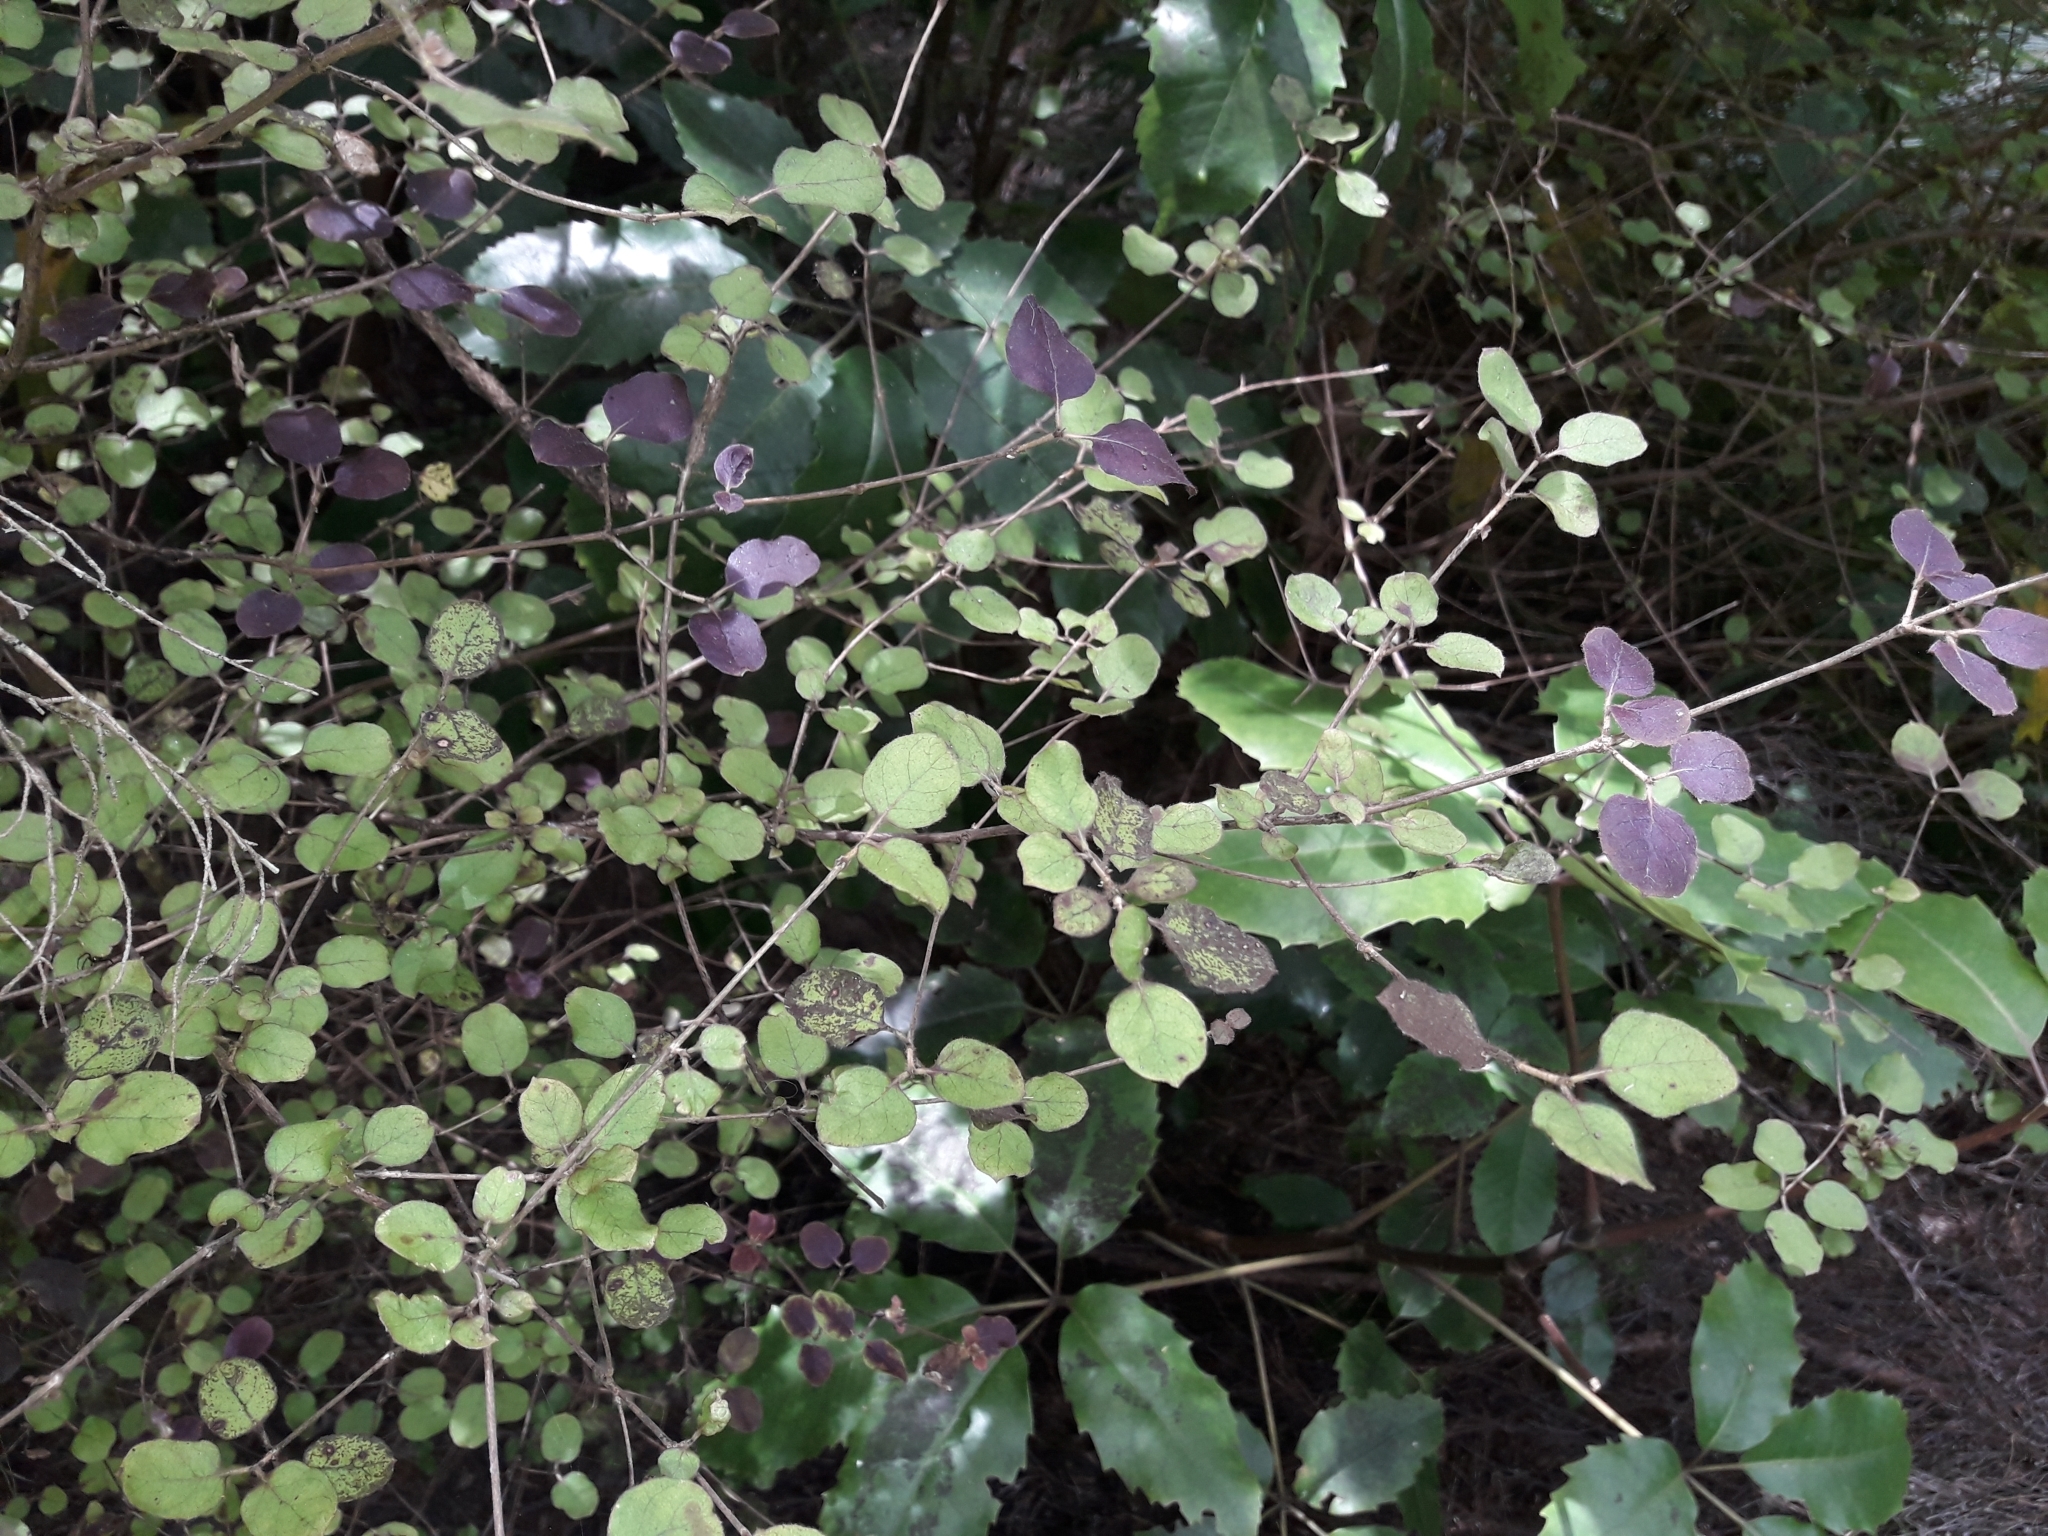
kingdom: Plantae
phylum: Tracheophyta
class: Magnoliopsida
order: Gentianales
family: Rubiaceae
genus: Coprosma
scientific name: Coprosma rotundifolia
